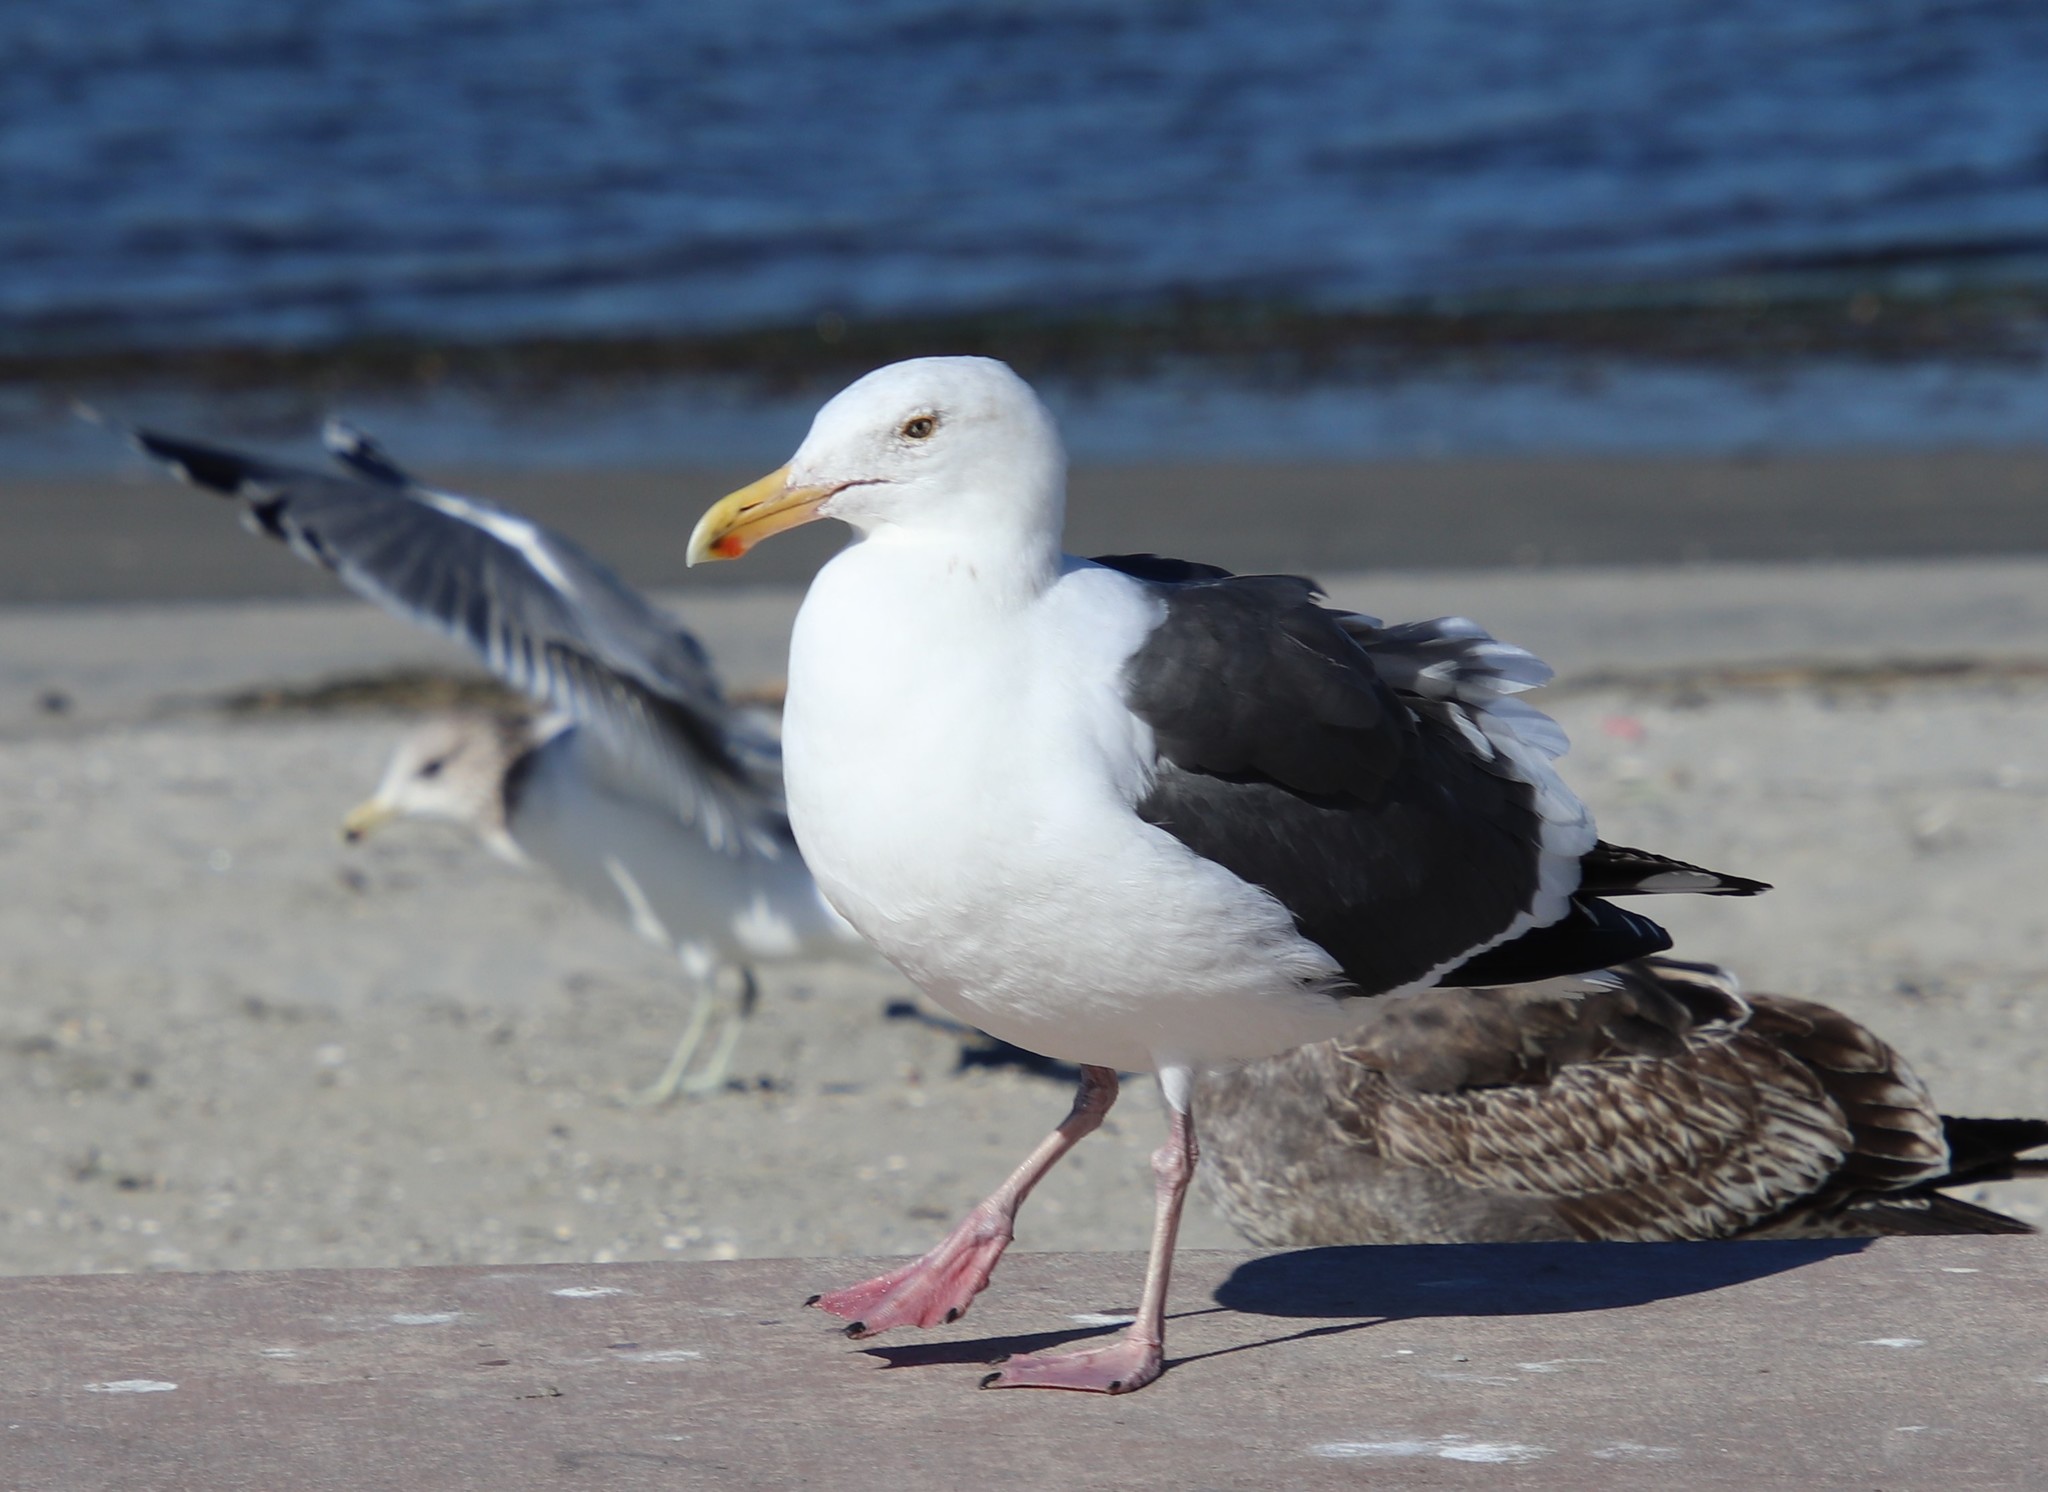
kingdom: Animalia
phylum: Chordata
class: Aves
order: Charadriiformes
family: Laridae
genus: Larus
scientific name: Larus occidentalis
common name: Western gull
